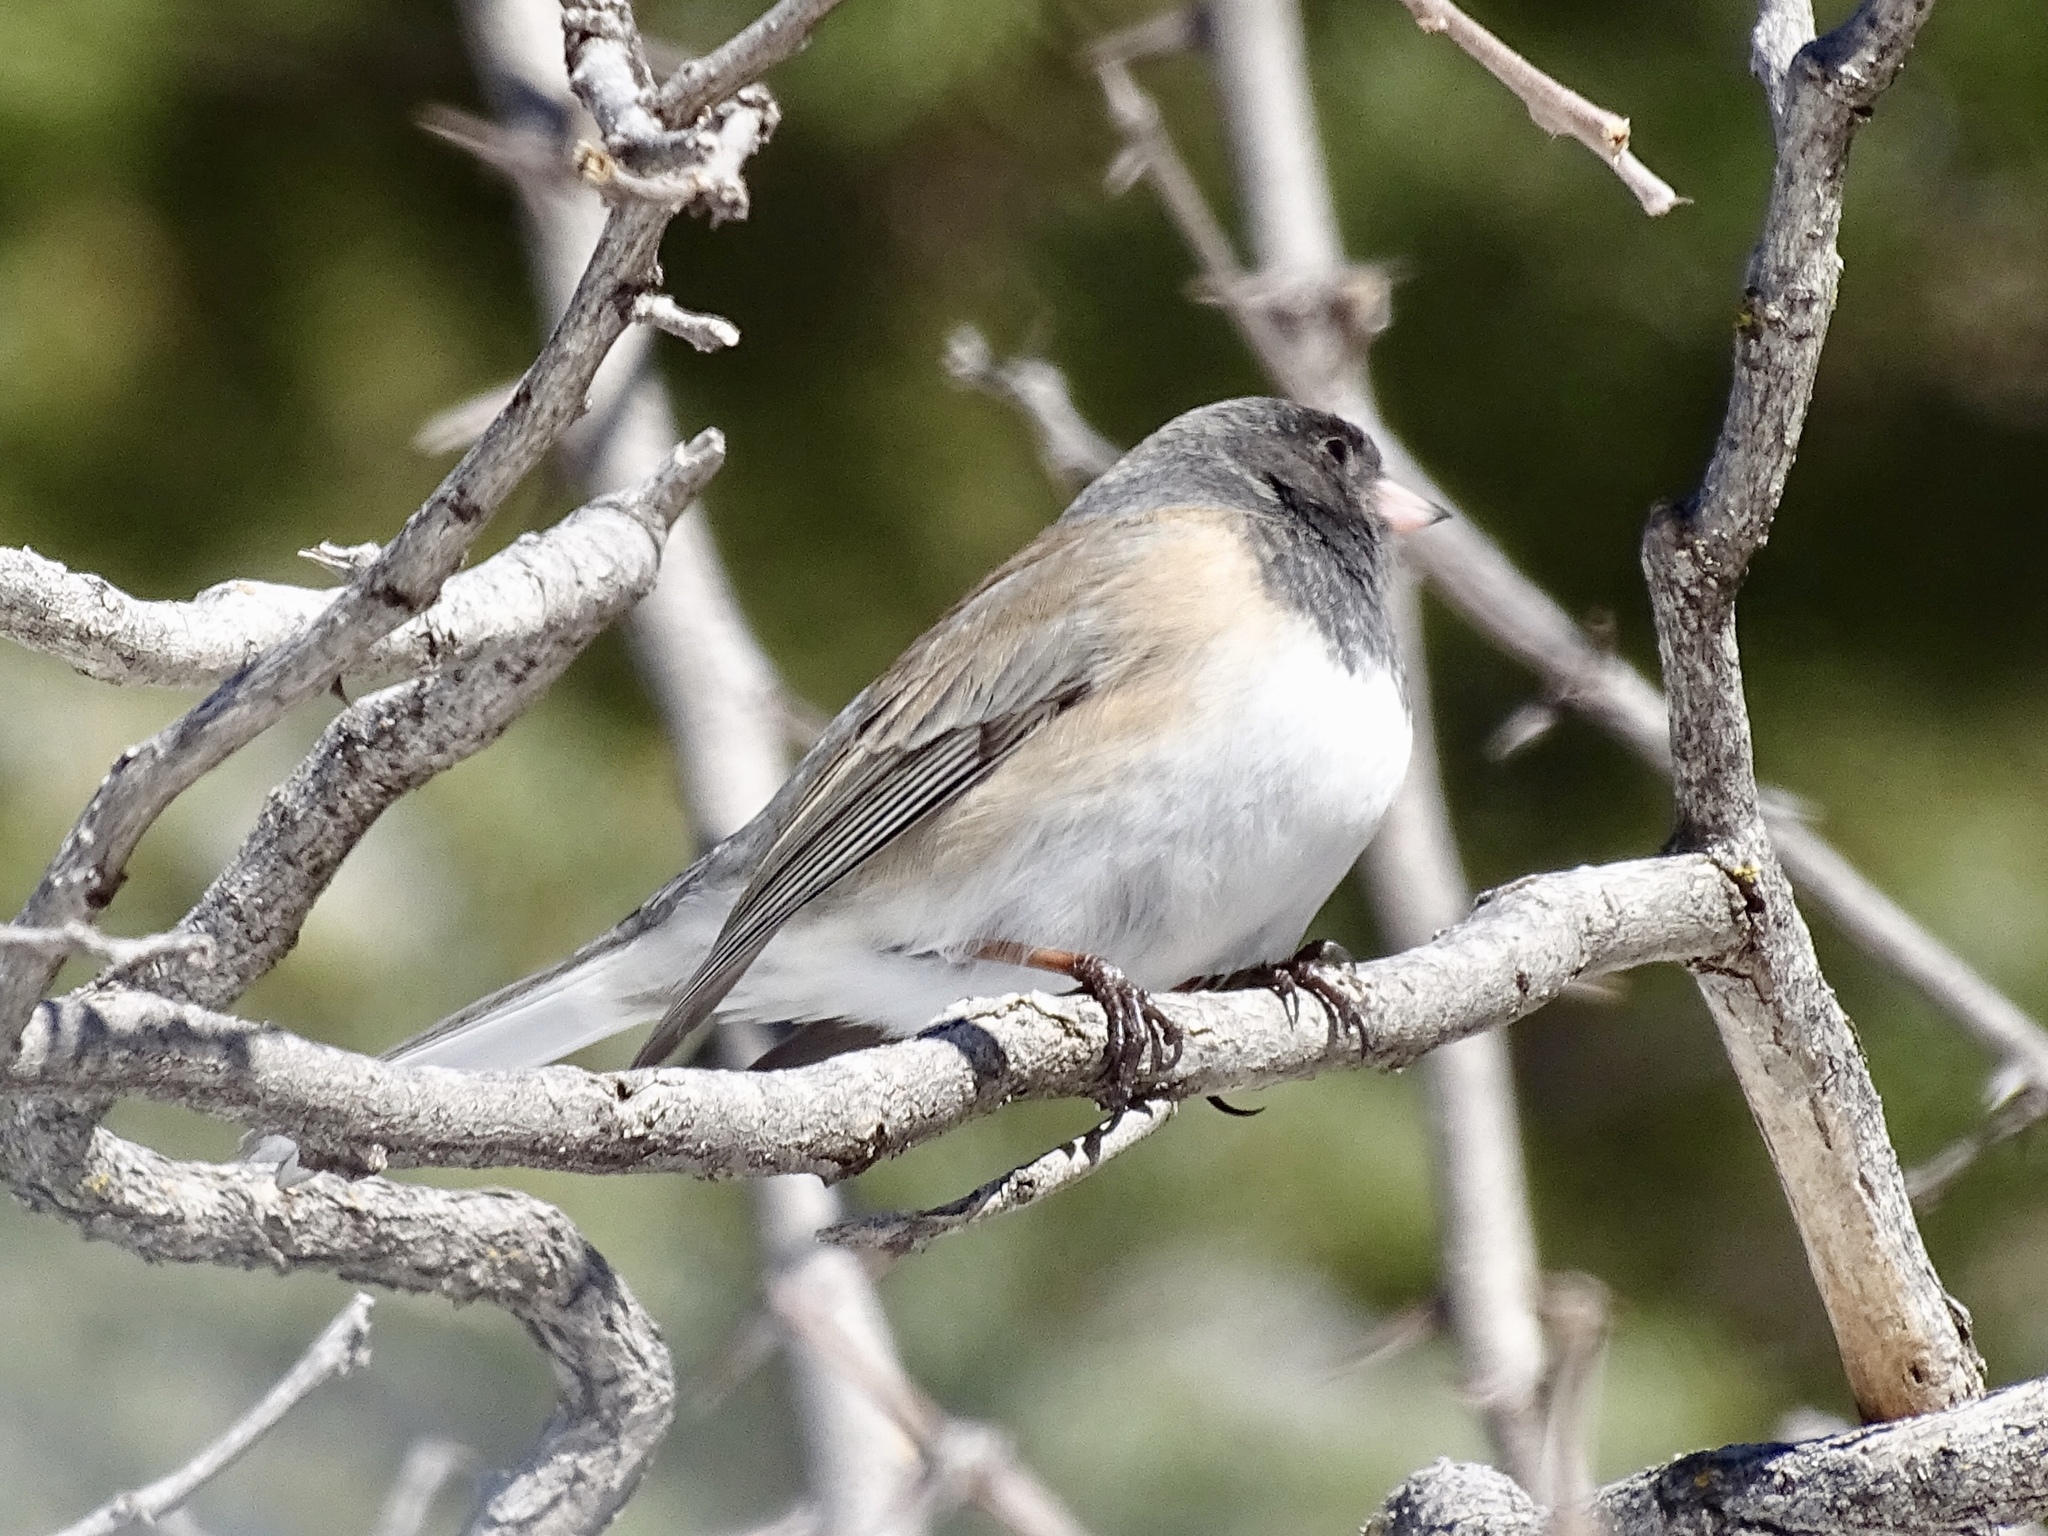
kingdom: Animalia
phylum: Chordata
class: Aves
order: Passeriformes
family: Passerellidae
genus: Junco
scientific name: Junco hyemalis
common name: Dark-eyed junco
